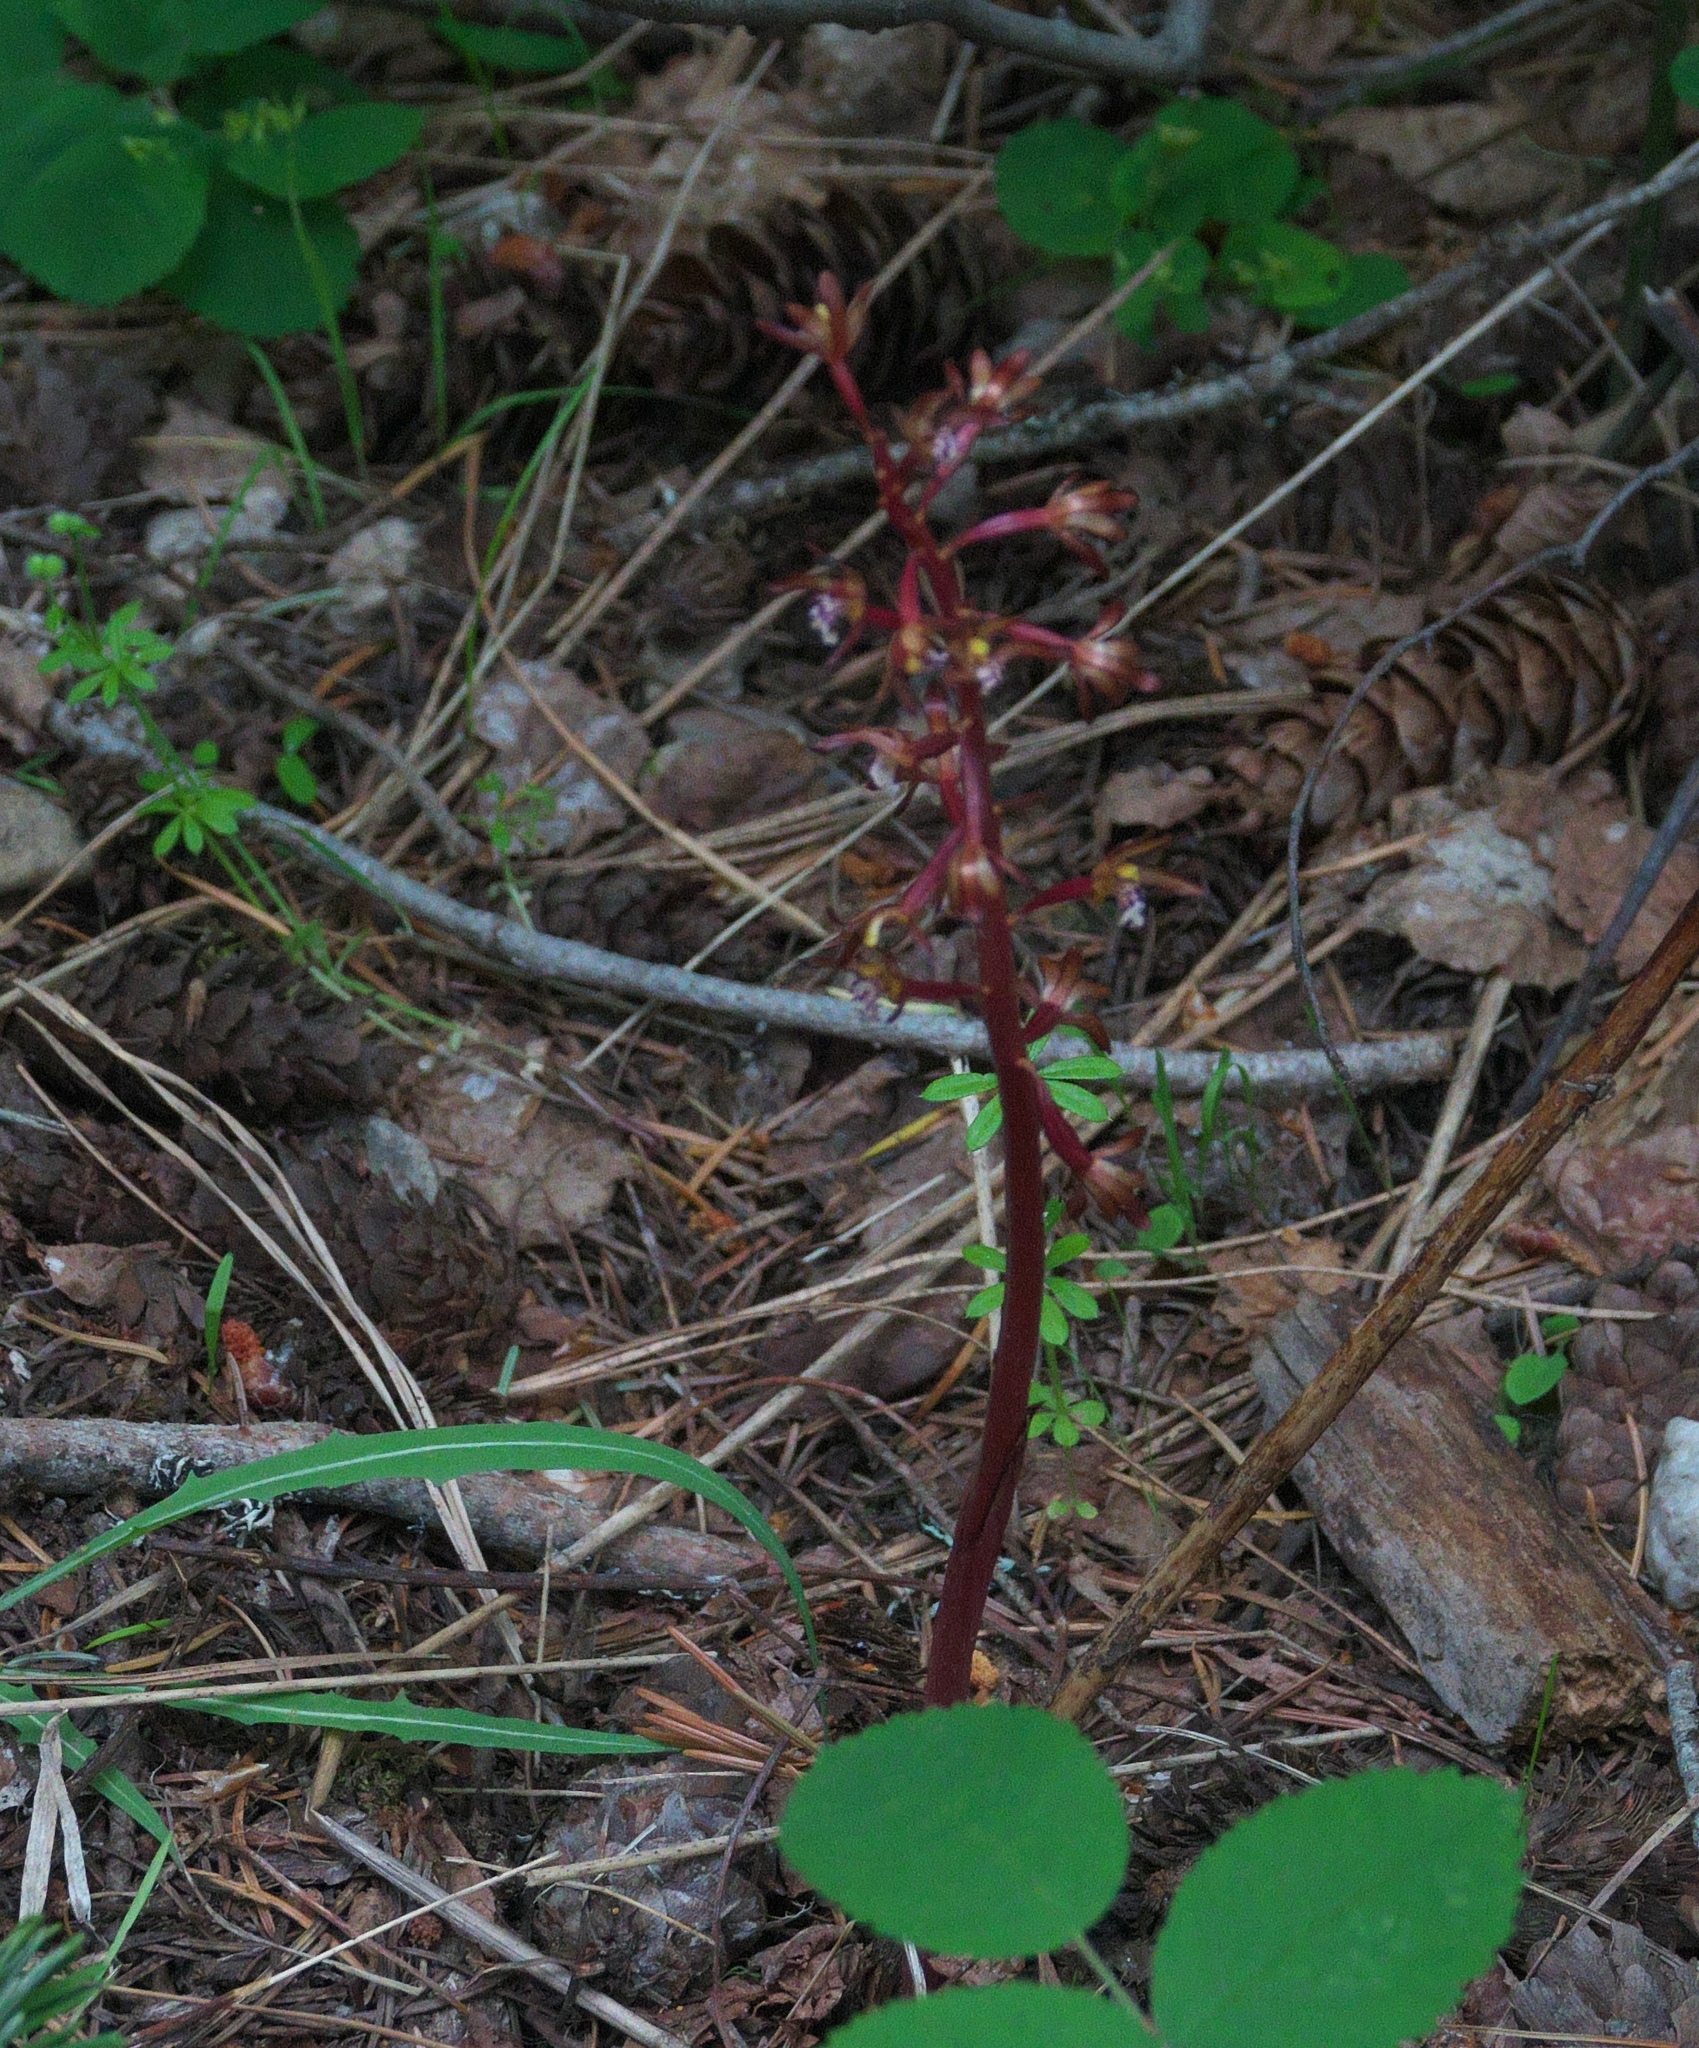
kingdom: Plantae
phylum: Tracheophyta
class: Liliopsida
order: Asparagales
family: Orchidaceae
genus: Corallorhiza
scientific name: Corallorhiza maculata
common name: Spotted coralroot
